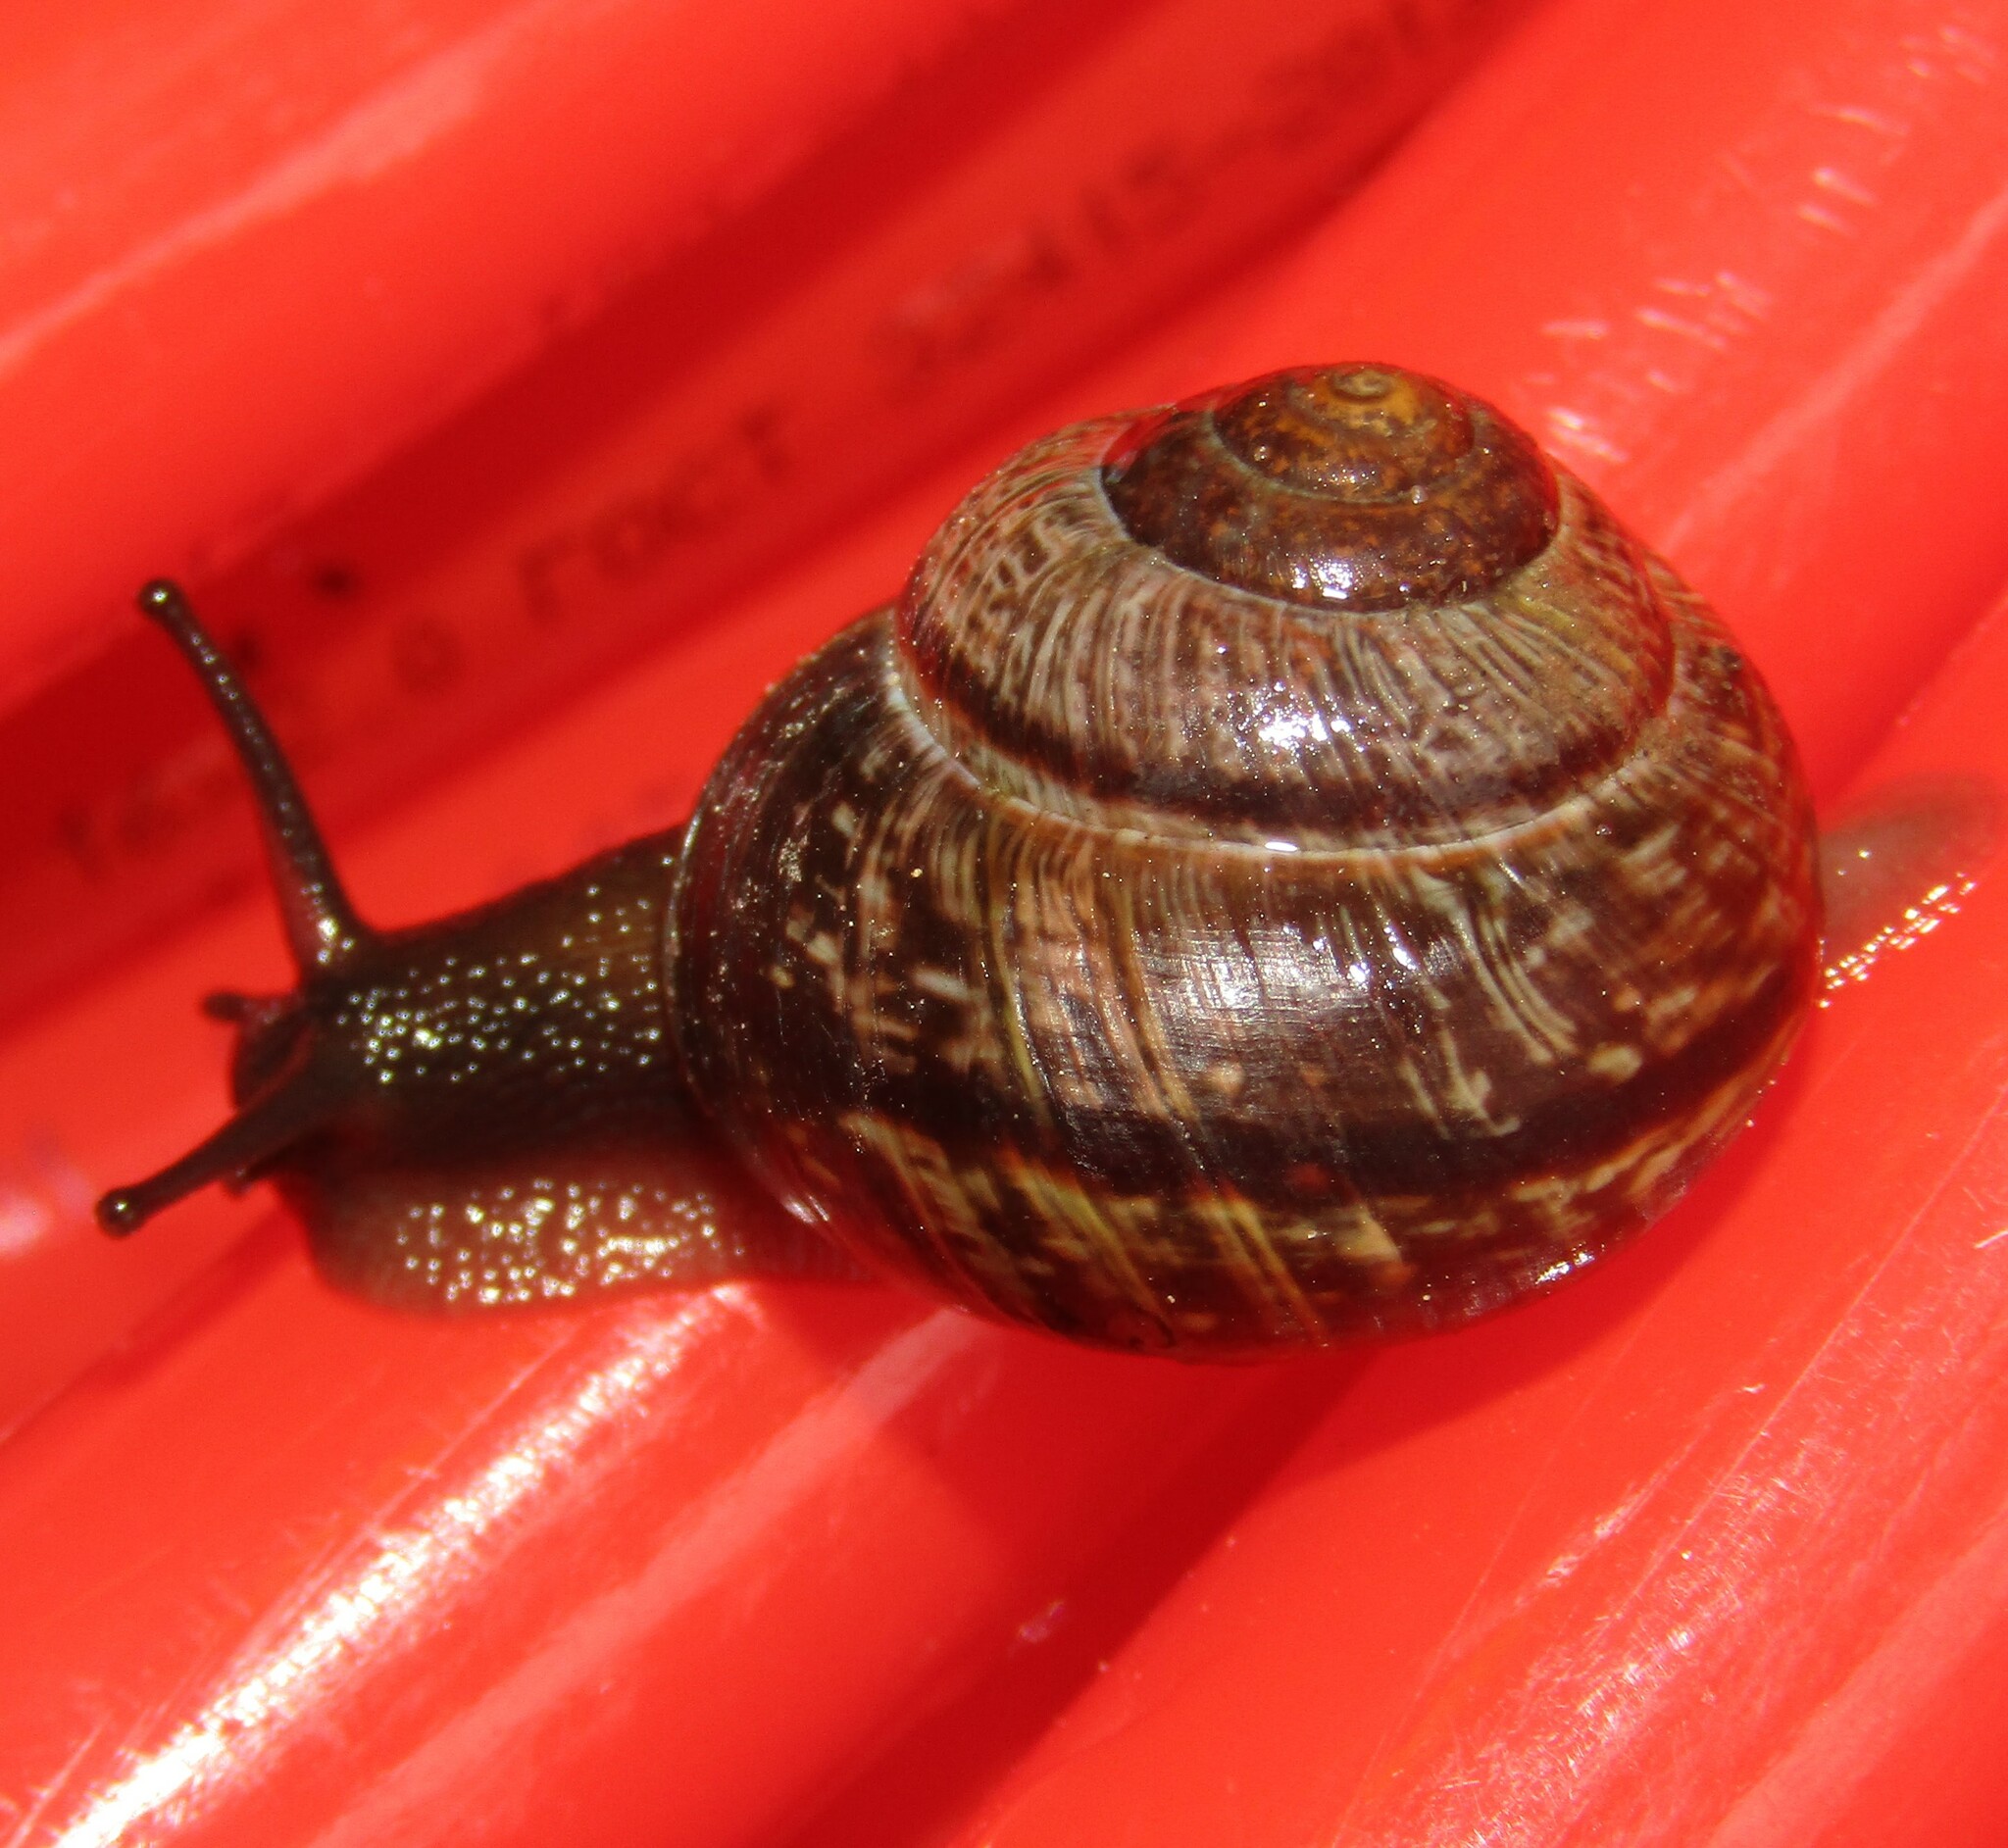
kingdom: Animalia
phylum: Mollusca
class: Gastropoda
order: Stylommatophora
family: Helicidae
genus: Arianta
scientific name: Arianta arbustorum
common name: Copse snail
